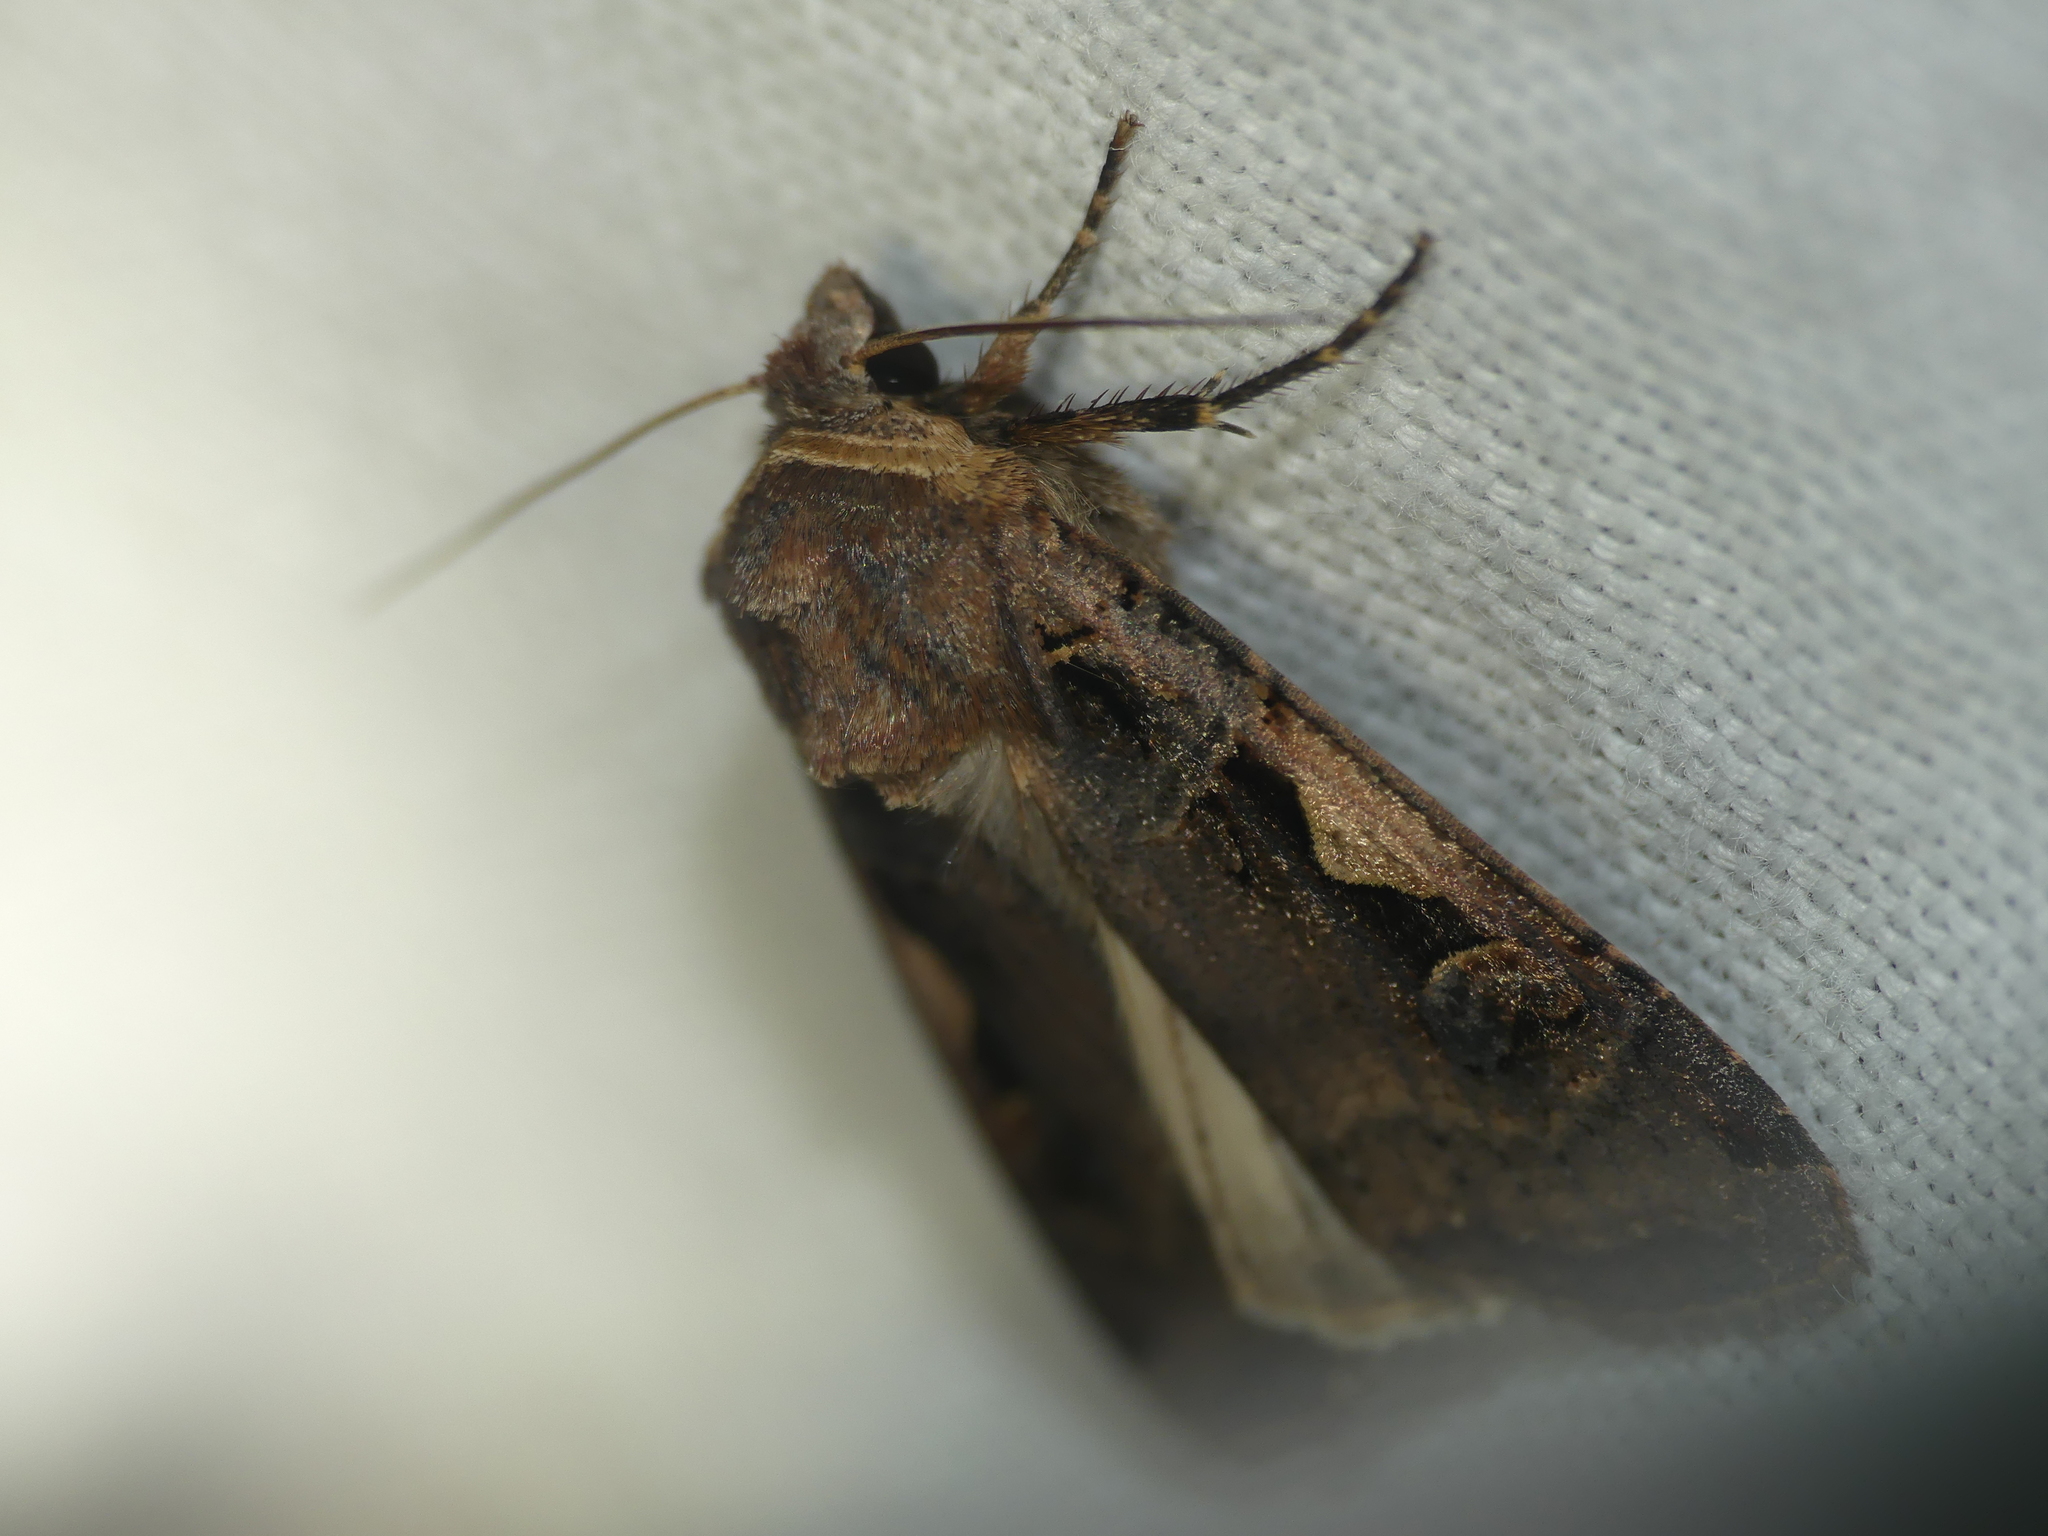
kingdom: Animalia
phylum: Arthropoda
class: Insecta
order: Lepidoptera
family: Noctuidae
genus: Xestia
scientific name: Xestia c-nigrum
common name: Setaceous hebrew character
